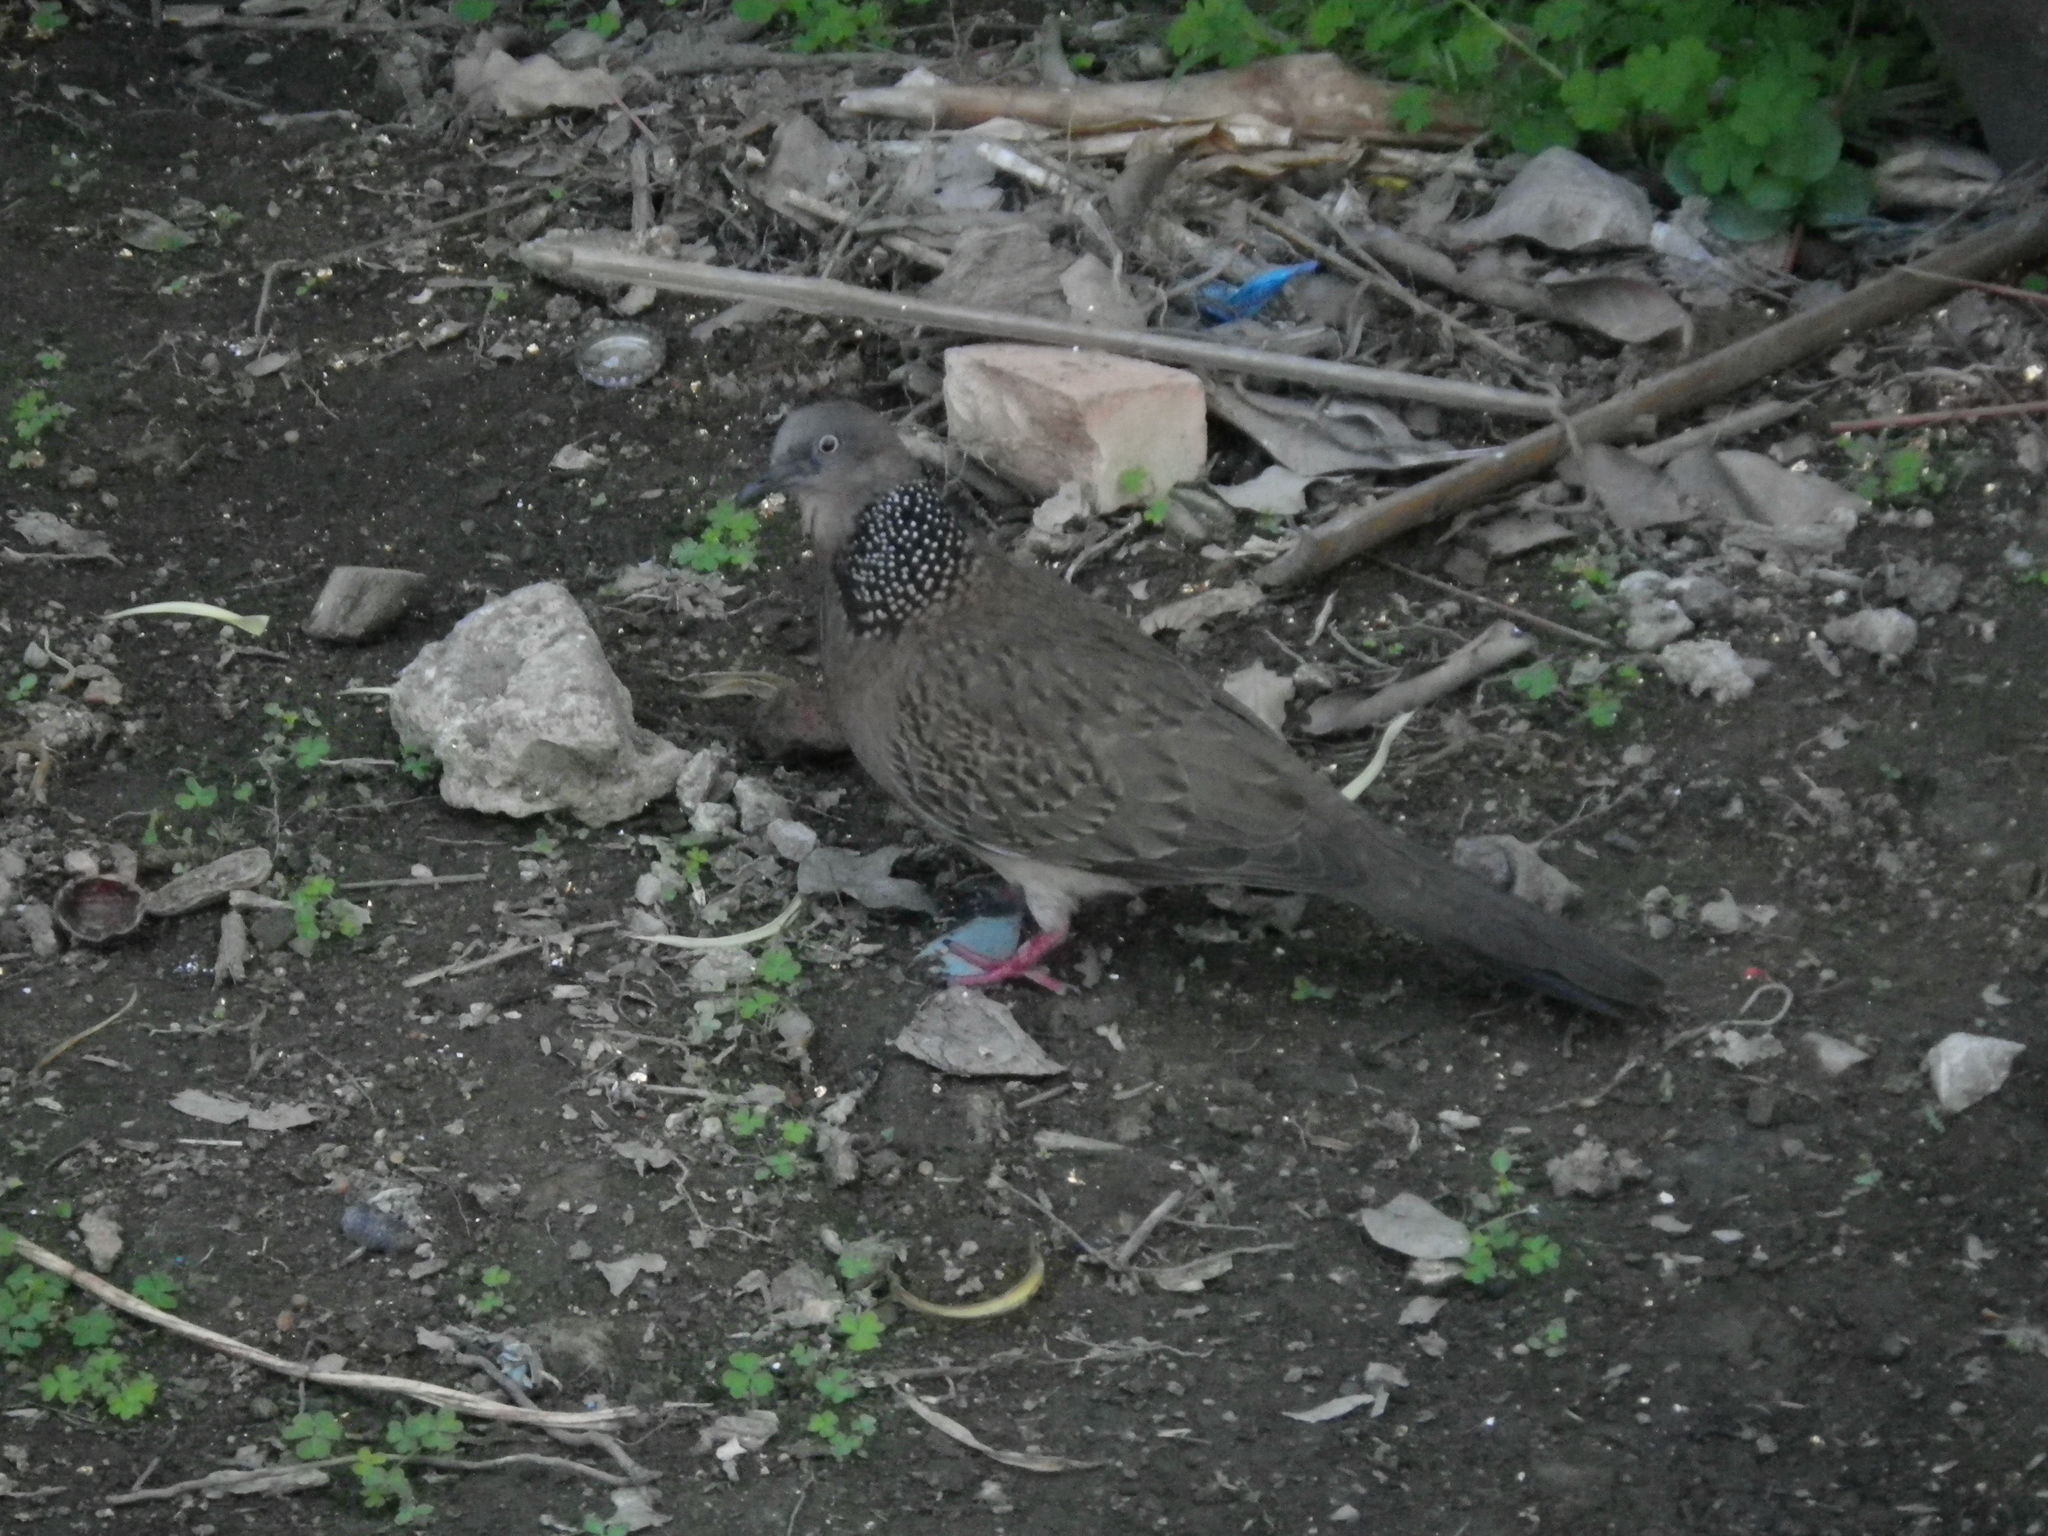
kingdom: Animalia
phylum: Chordata
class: Aves
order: Columbiformes
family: Columbidae
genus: Spilopelia
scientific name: Spilopelia chinensis
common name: Spotted dove
